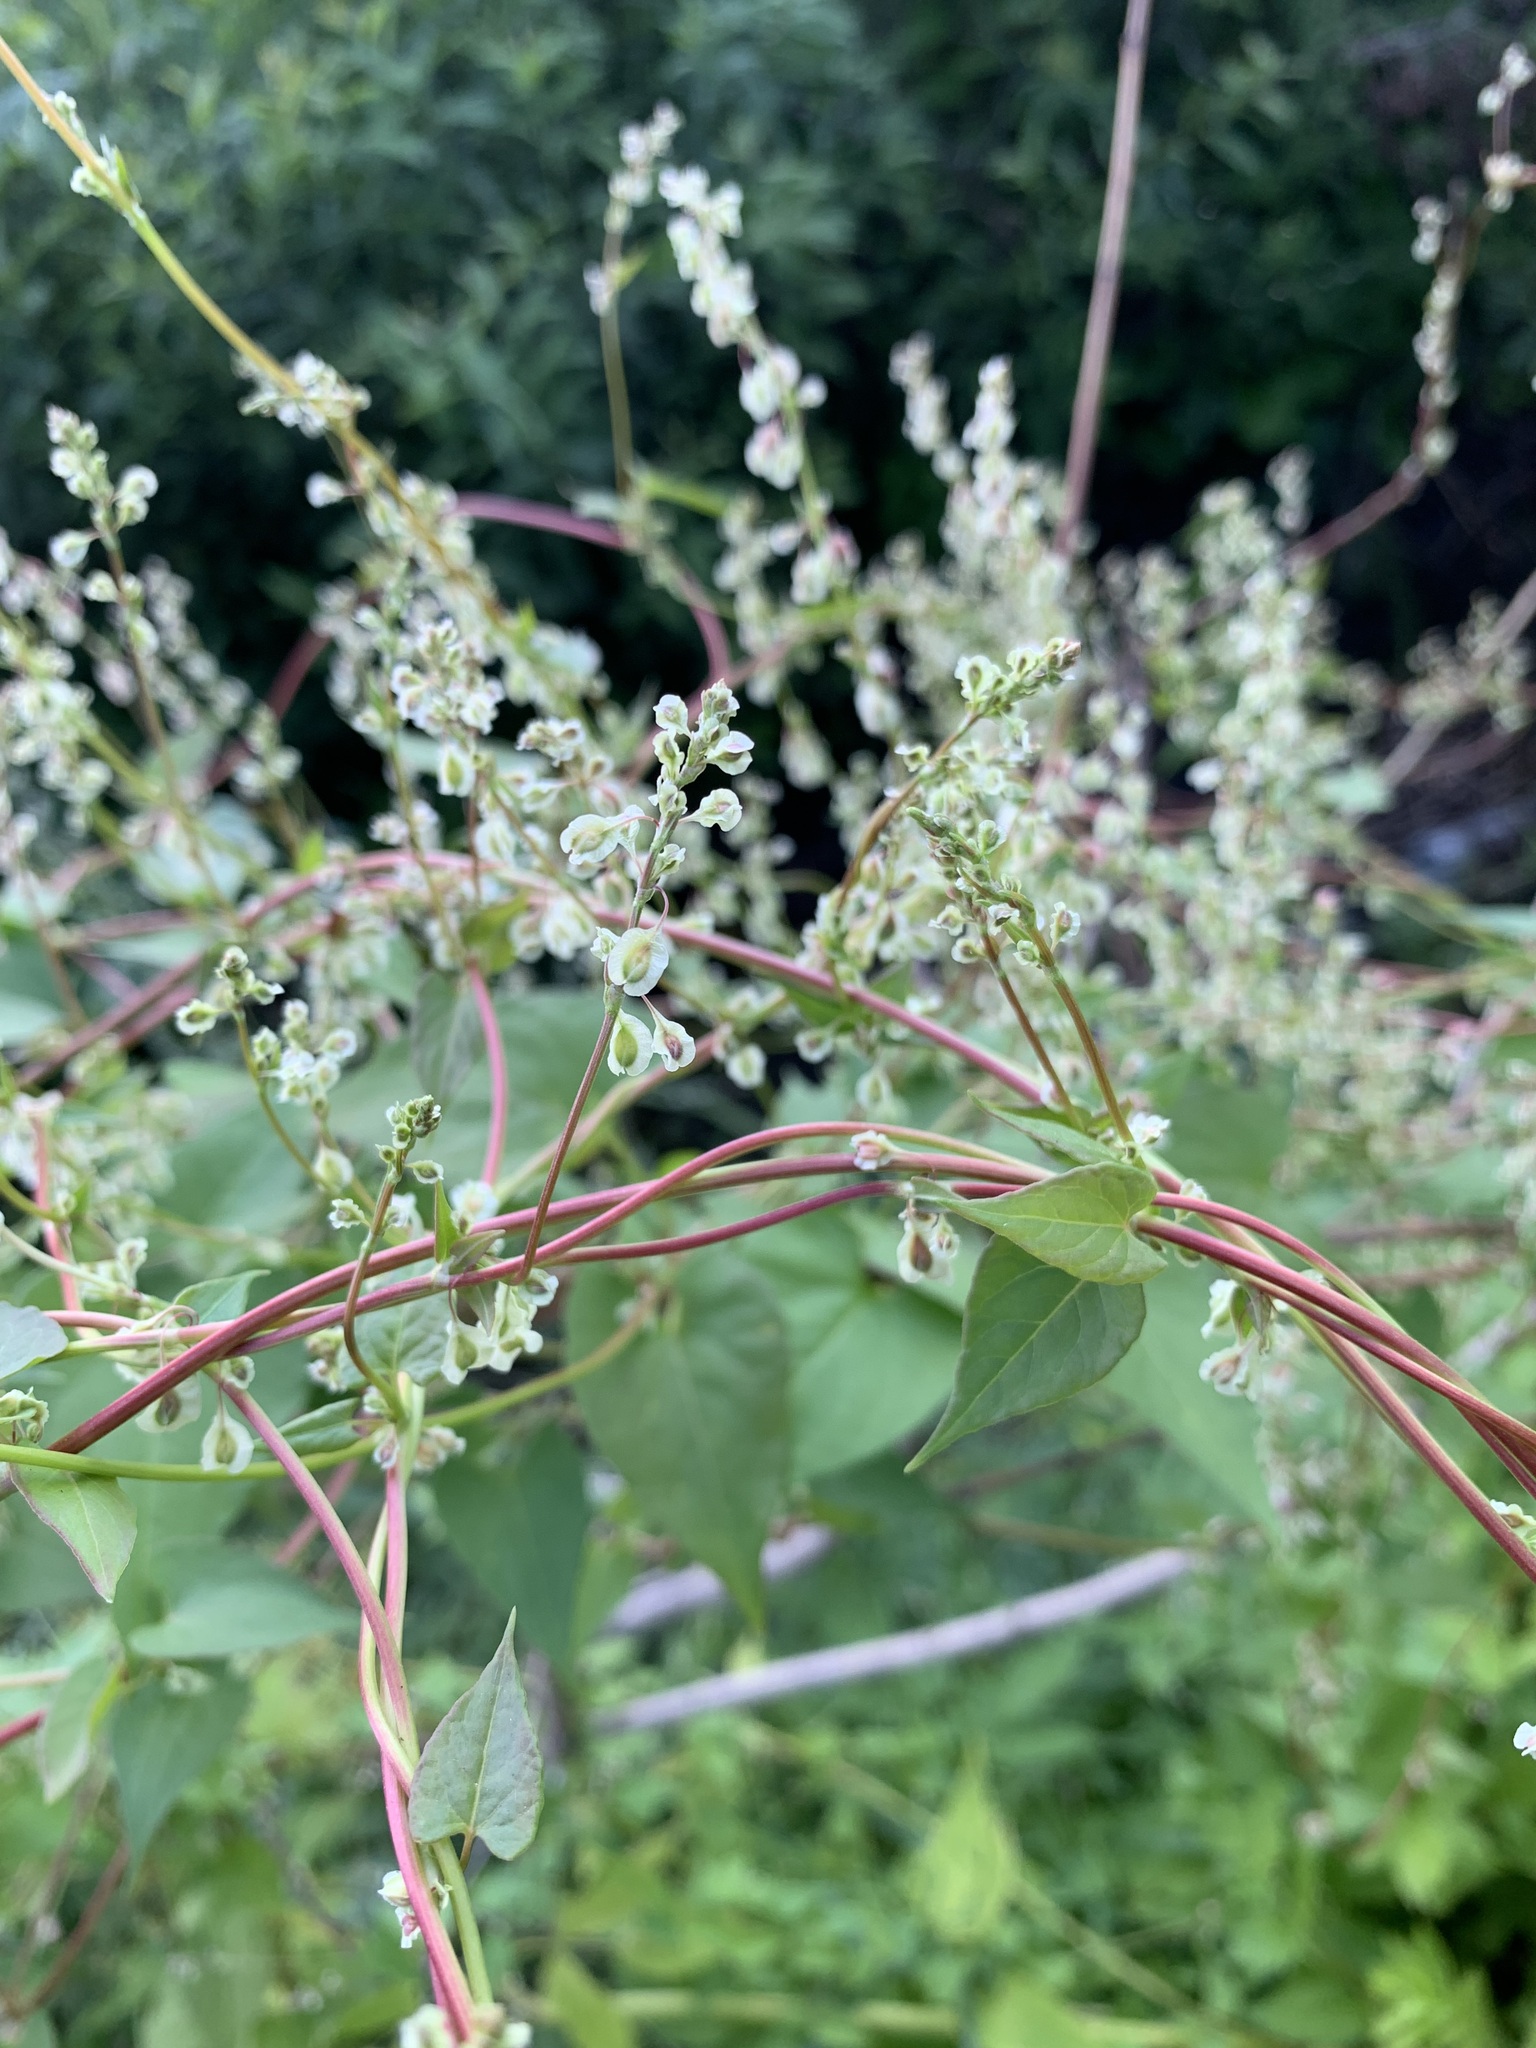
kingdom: Plantae
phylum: Tracheophyta
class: Magnoliopsida
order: Caryophyllales
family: Polygonaceae
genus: Fallopia
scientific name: Fallopia dumetorum
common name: Copse-bindweed
